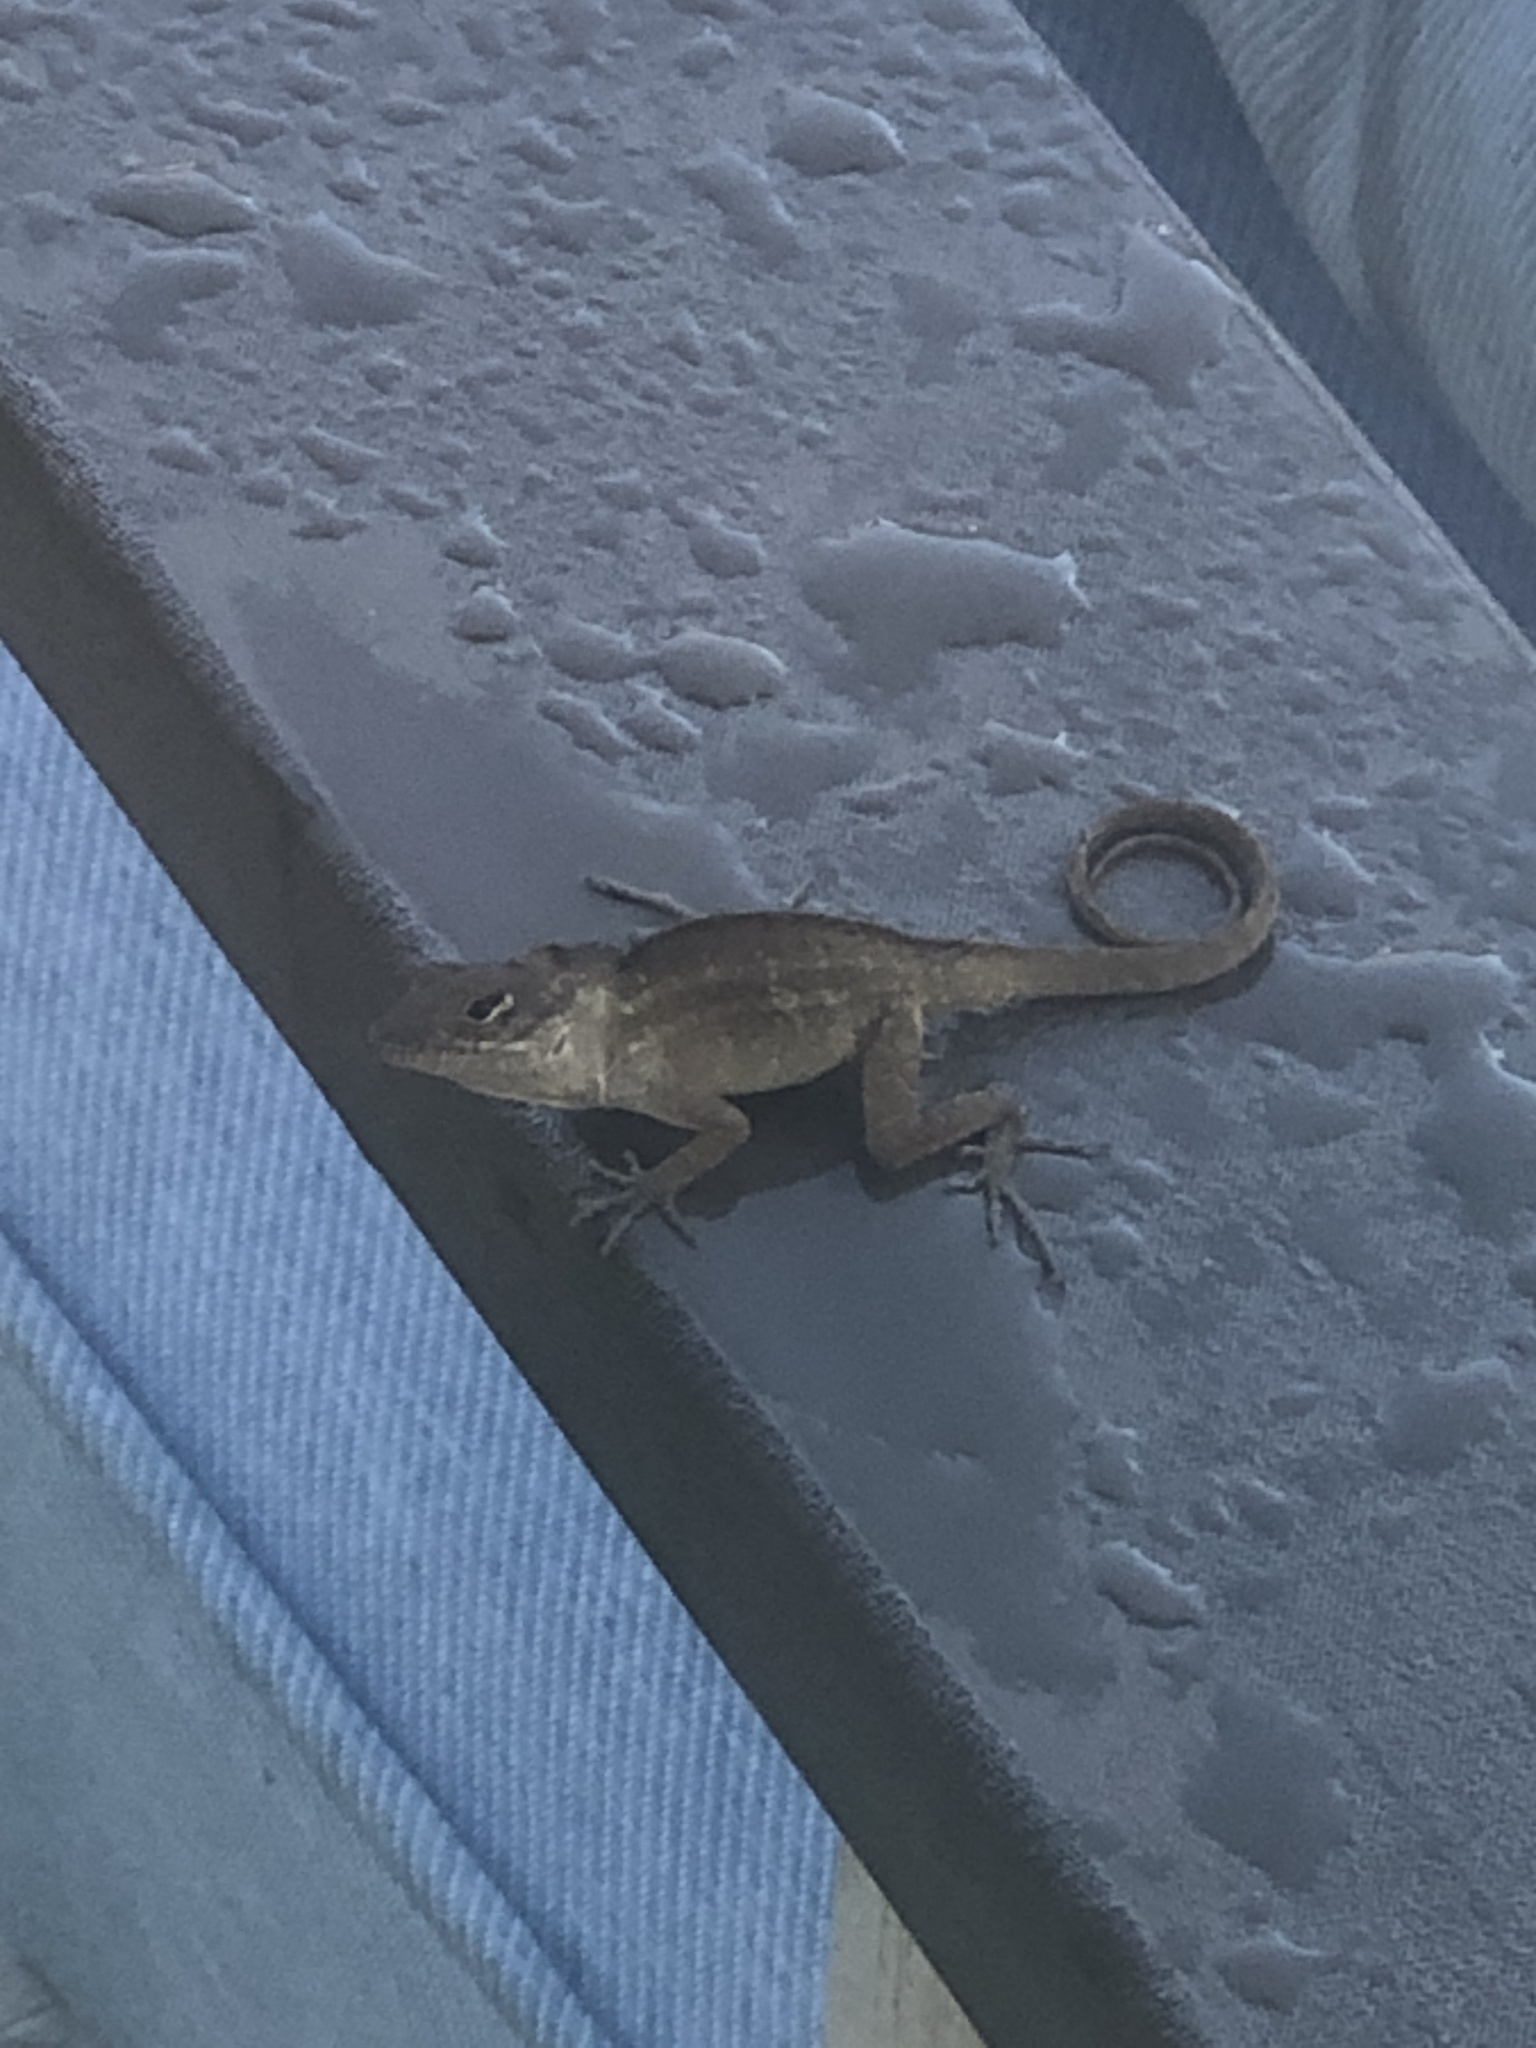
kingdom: Animalia
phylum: Chordata
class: Squamata
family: Dactyloidae
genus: Anolis
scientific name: Anolis sagrei
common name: Brown anole
